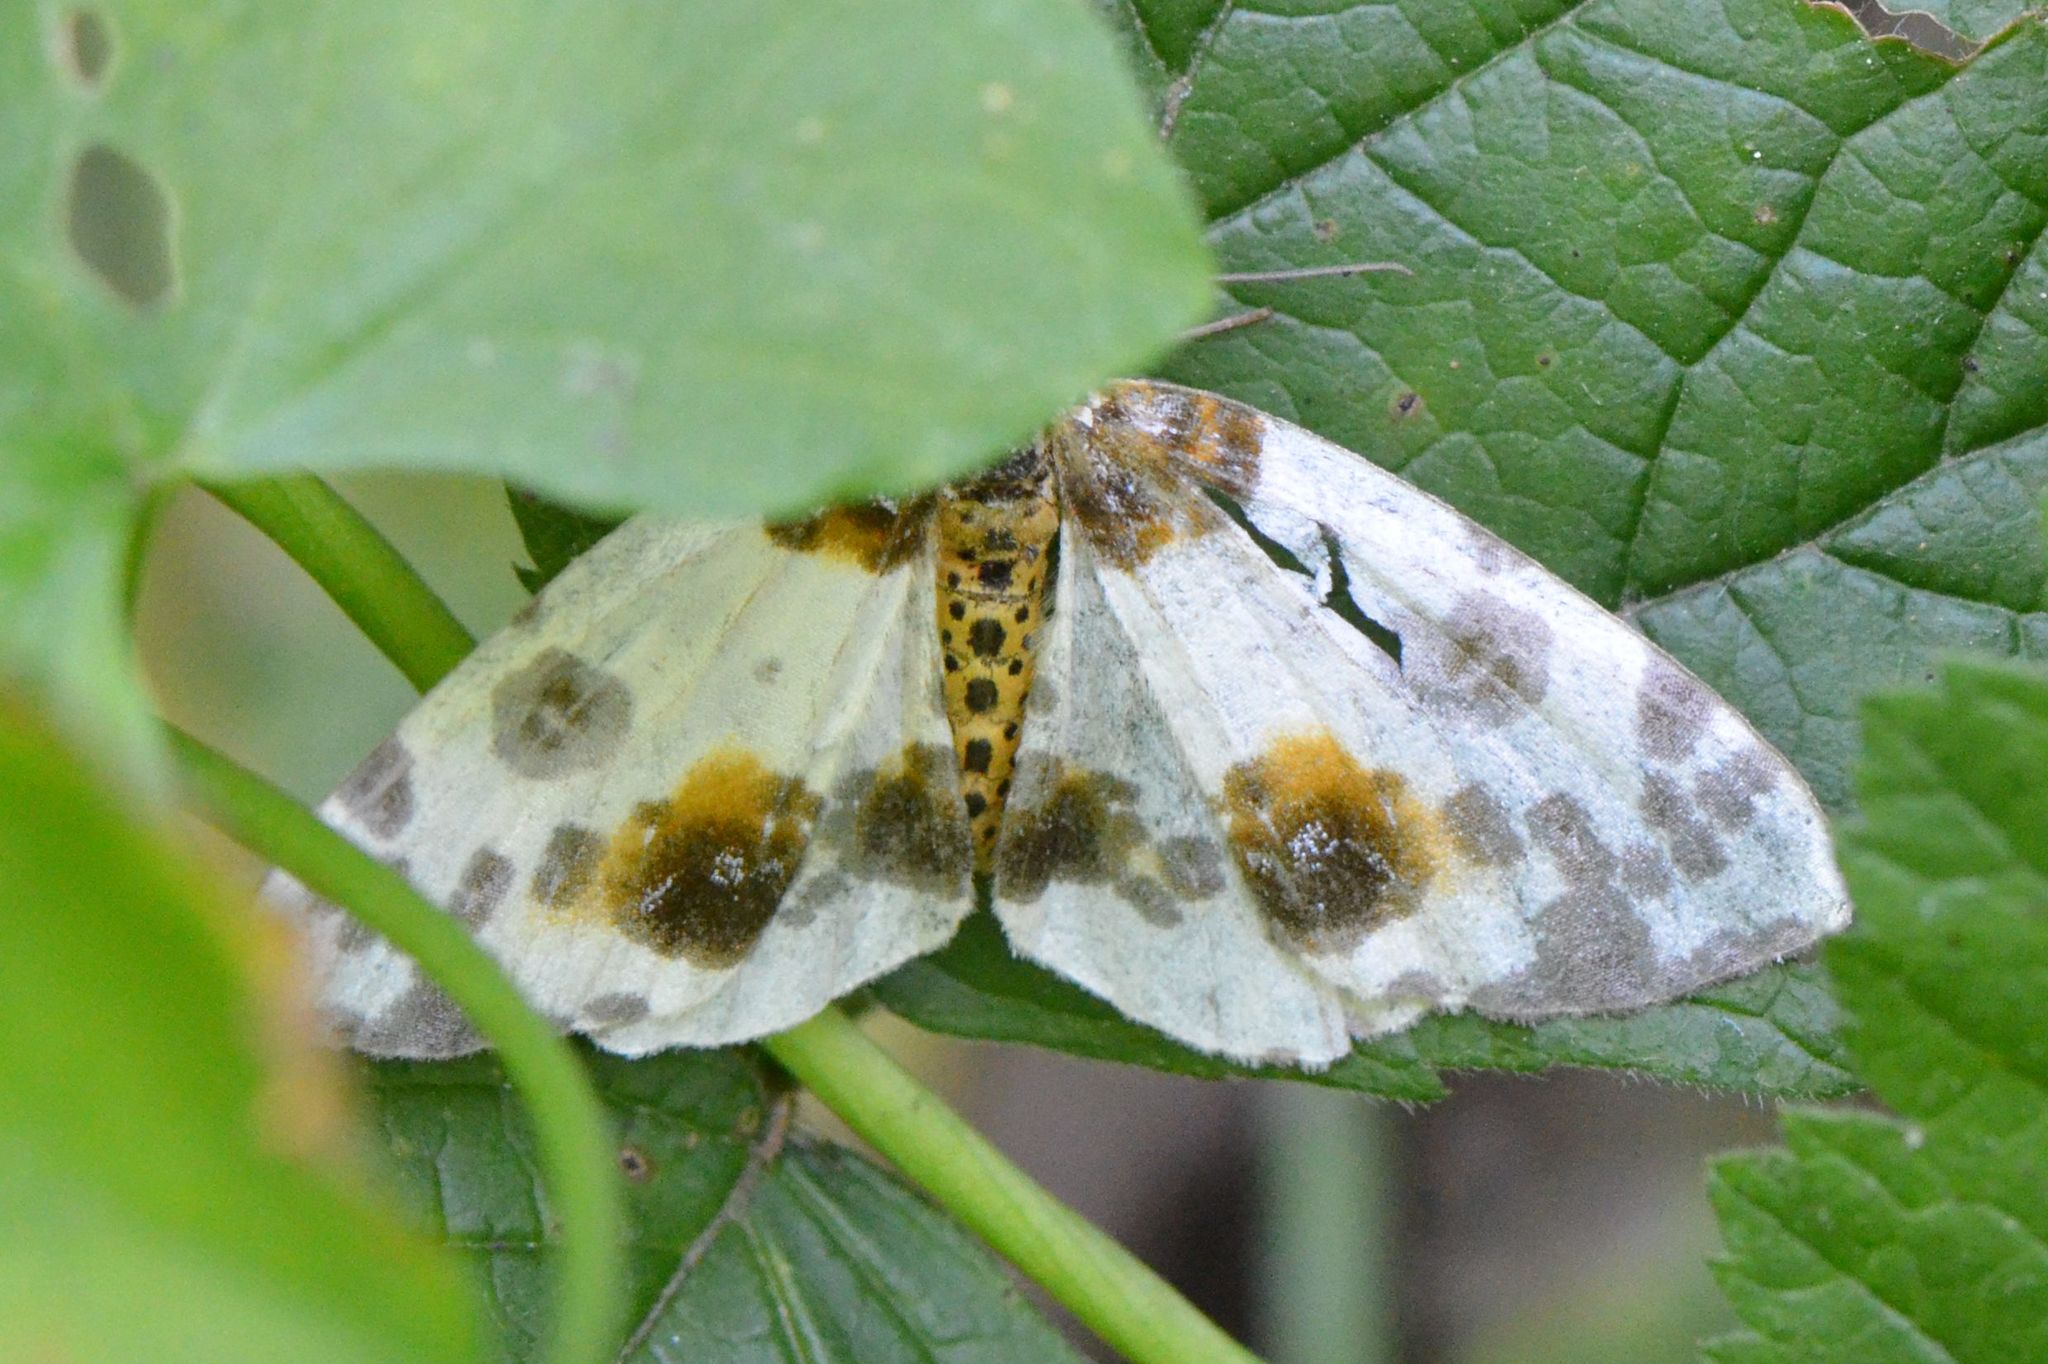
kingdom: Animalia
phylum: Arthropoda
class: Insecta
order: Lepidoptera
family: Geometridae
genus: Abraxas
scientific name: Abraxas sylvata
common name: Clouded magpie
